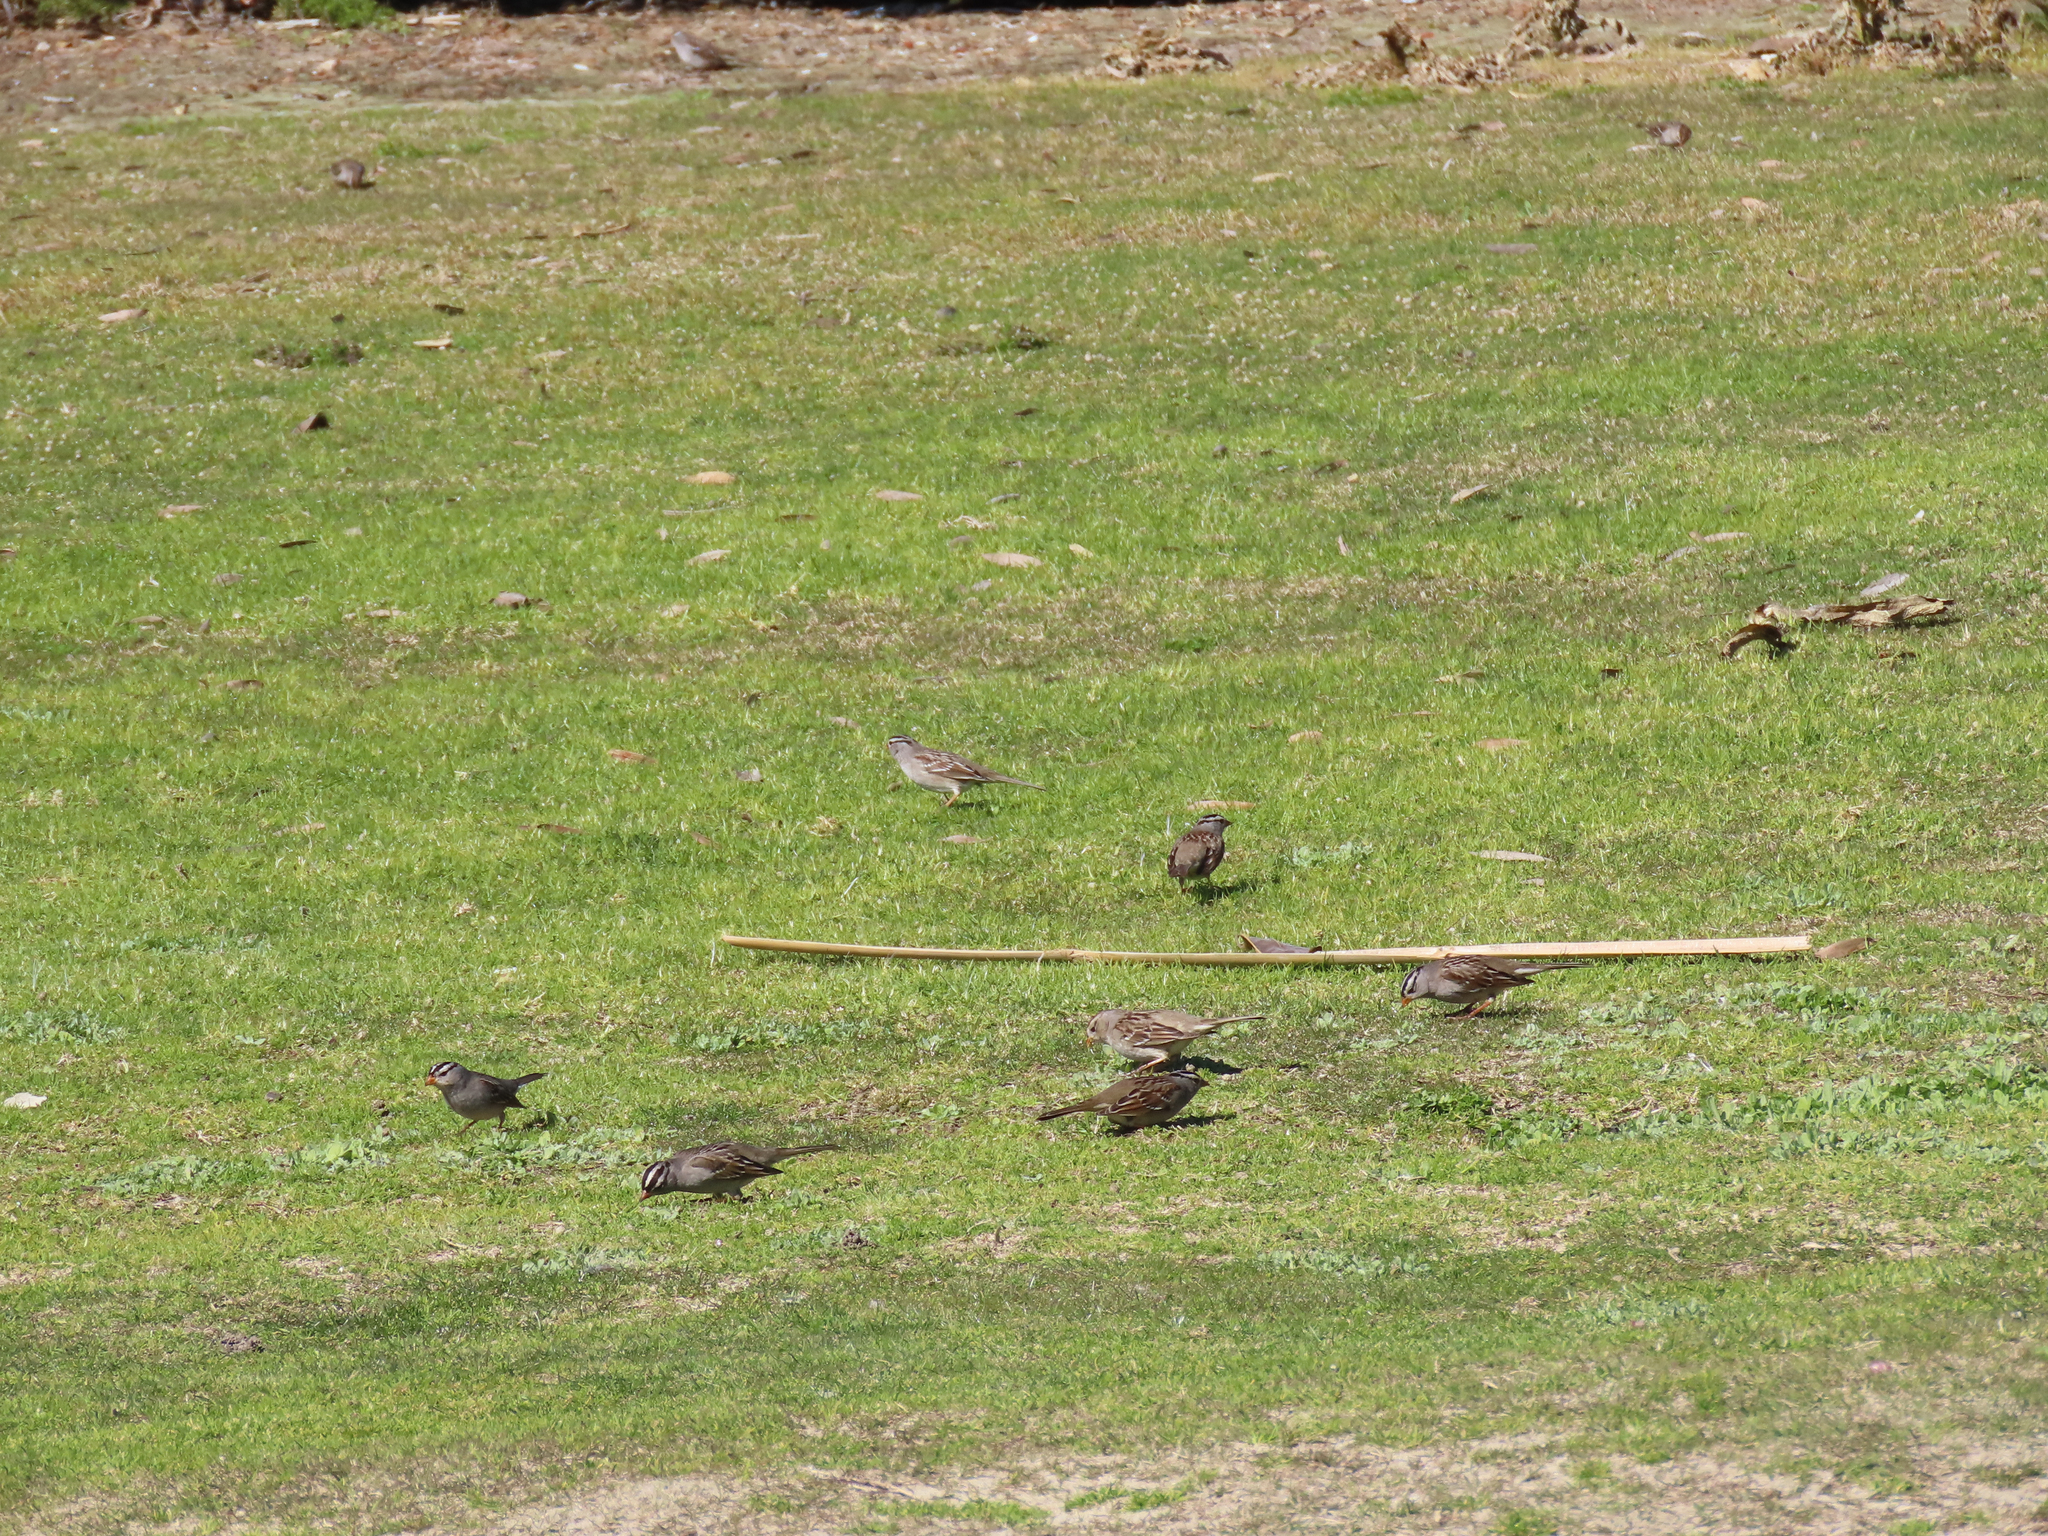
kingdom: Animalia
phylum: Chordata
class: Aves
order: Passeriformes
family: Passerellidae
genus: Zonotrichia
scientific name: Zonotrichia leucophrys
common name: White-crowned sparrow
